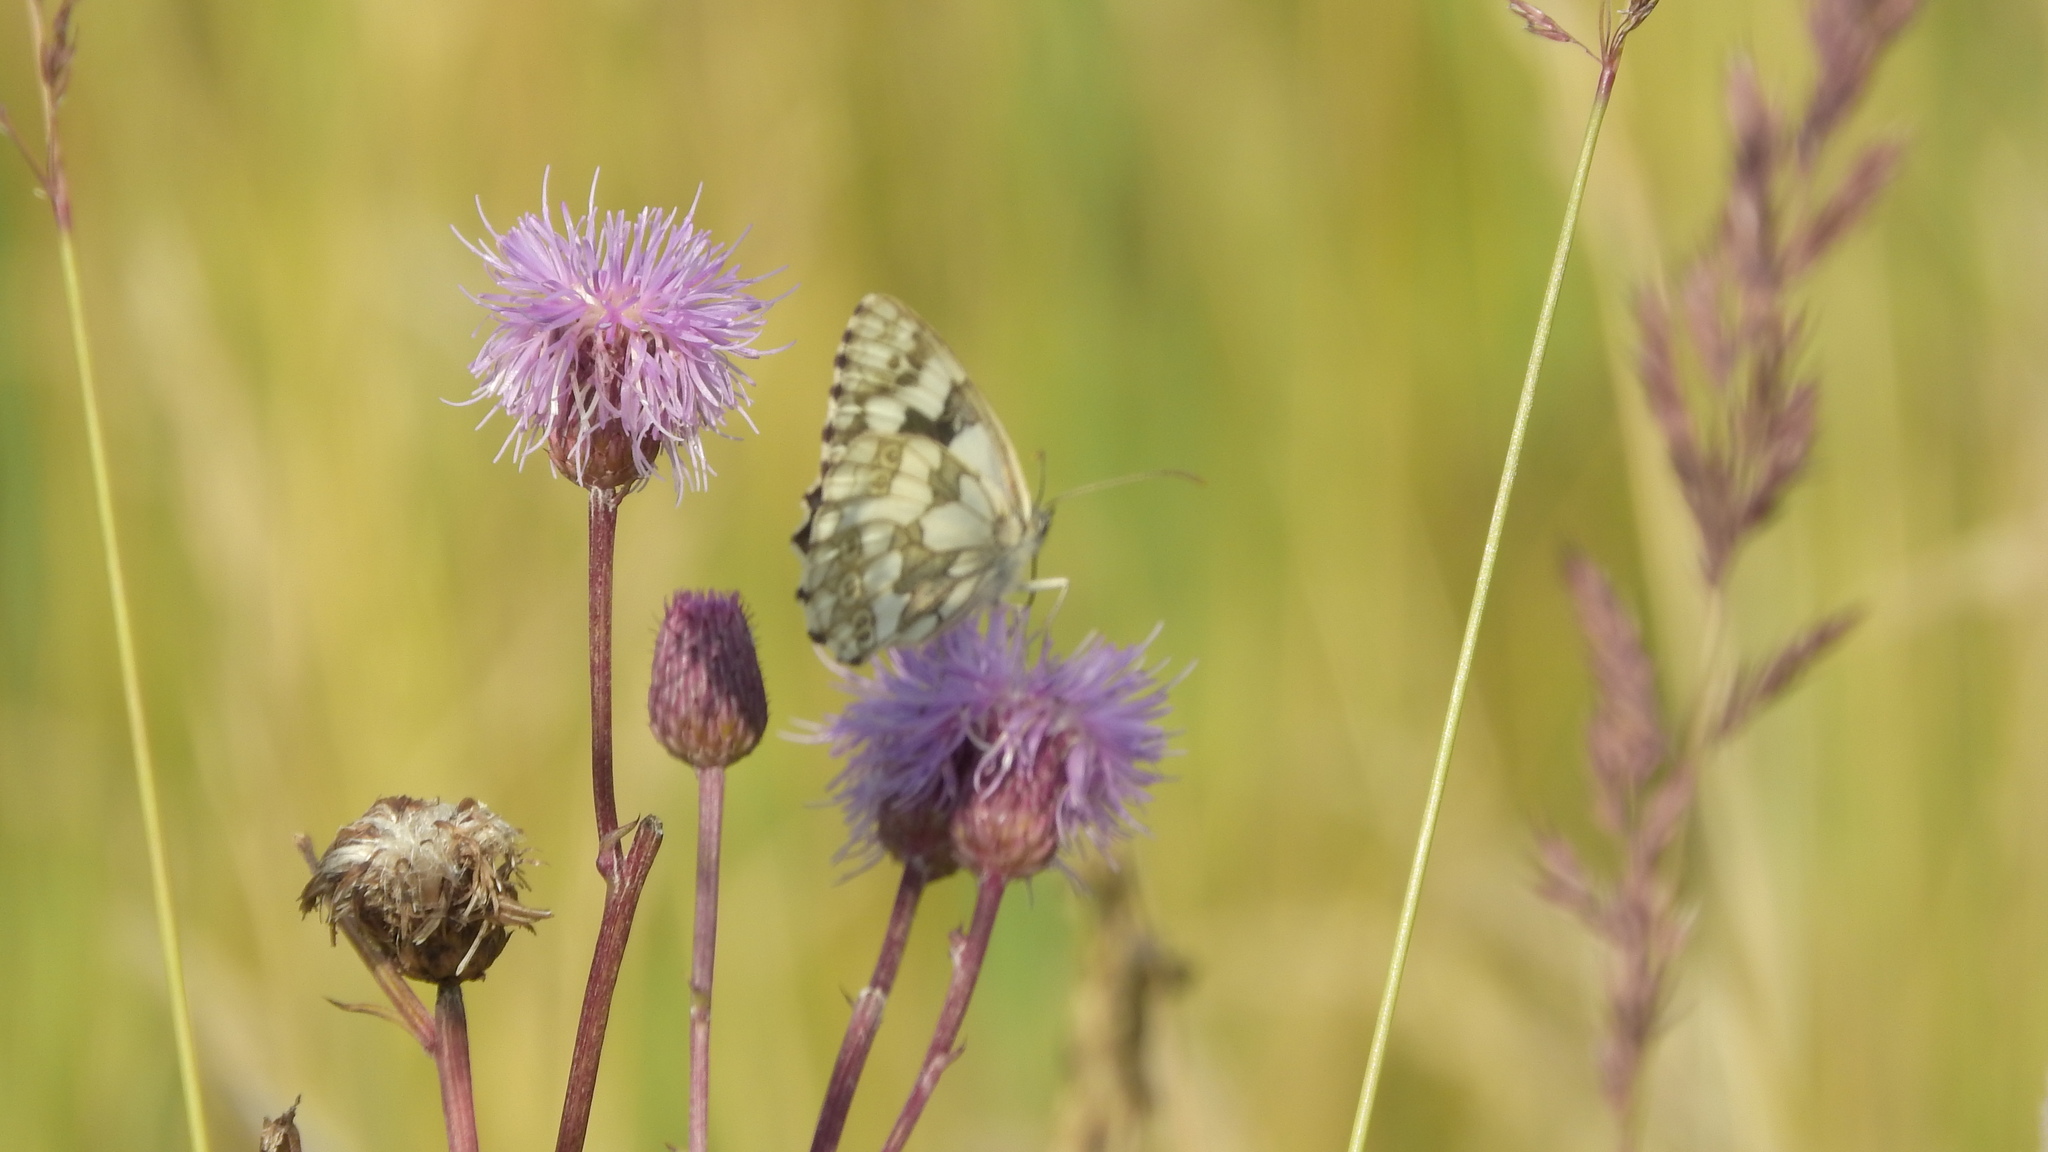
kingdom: Animalia
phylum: Arthropoda
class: Insecta
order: Lepidoptera
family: Nymphalidae
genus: Melanargia
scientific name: Melanargia galathea
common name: Marbled white
